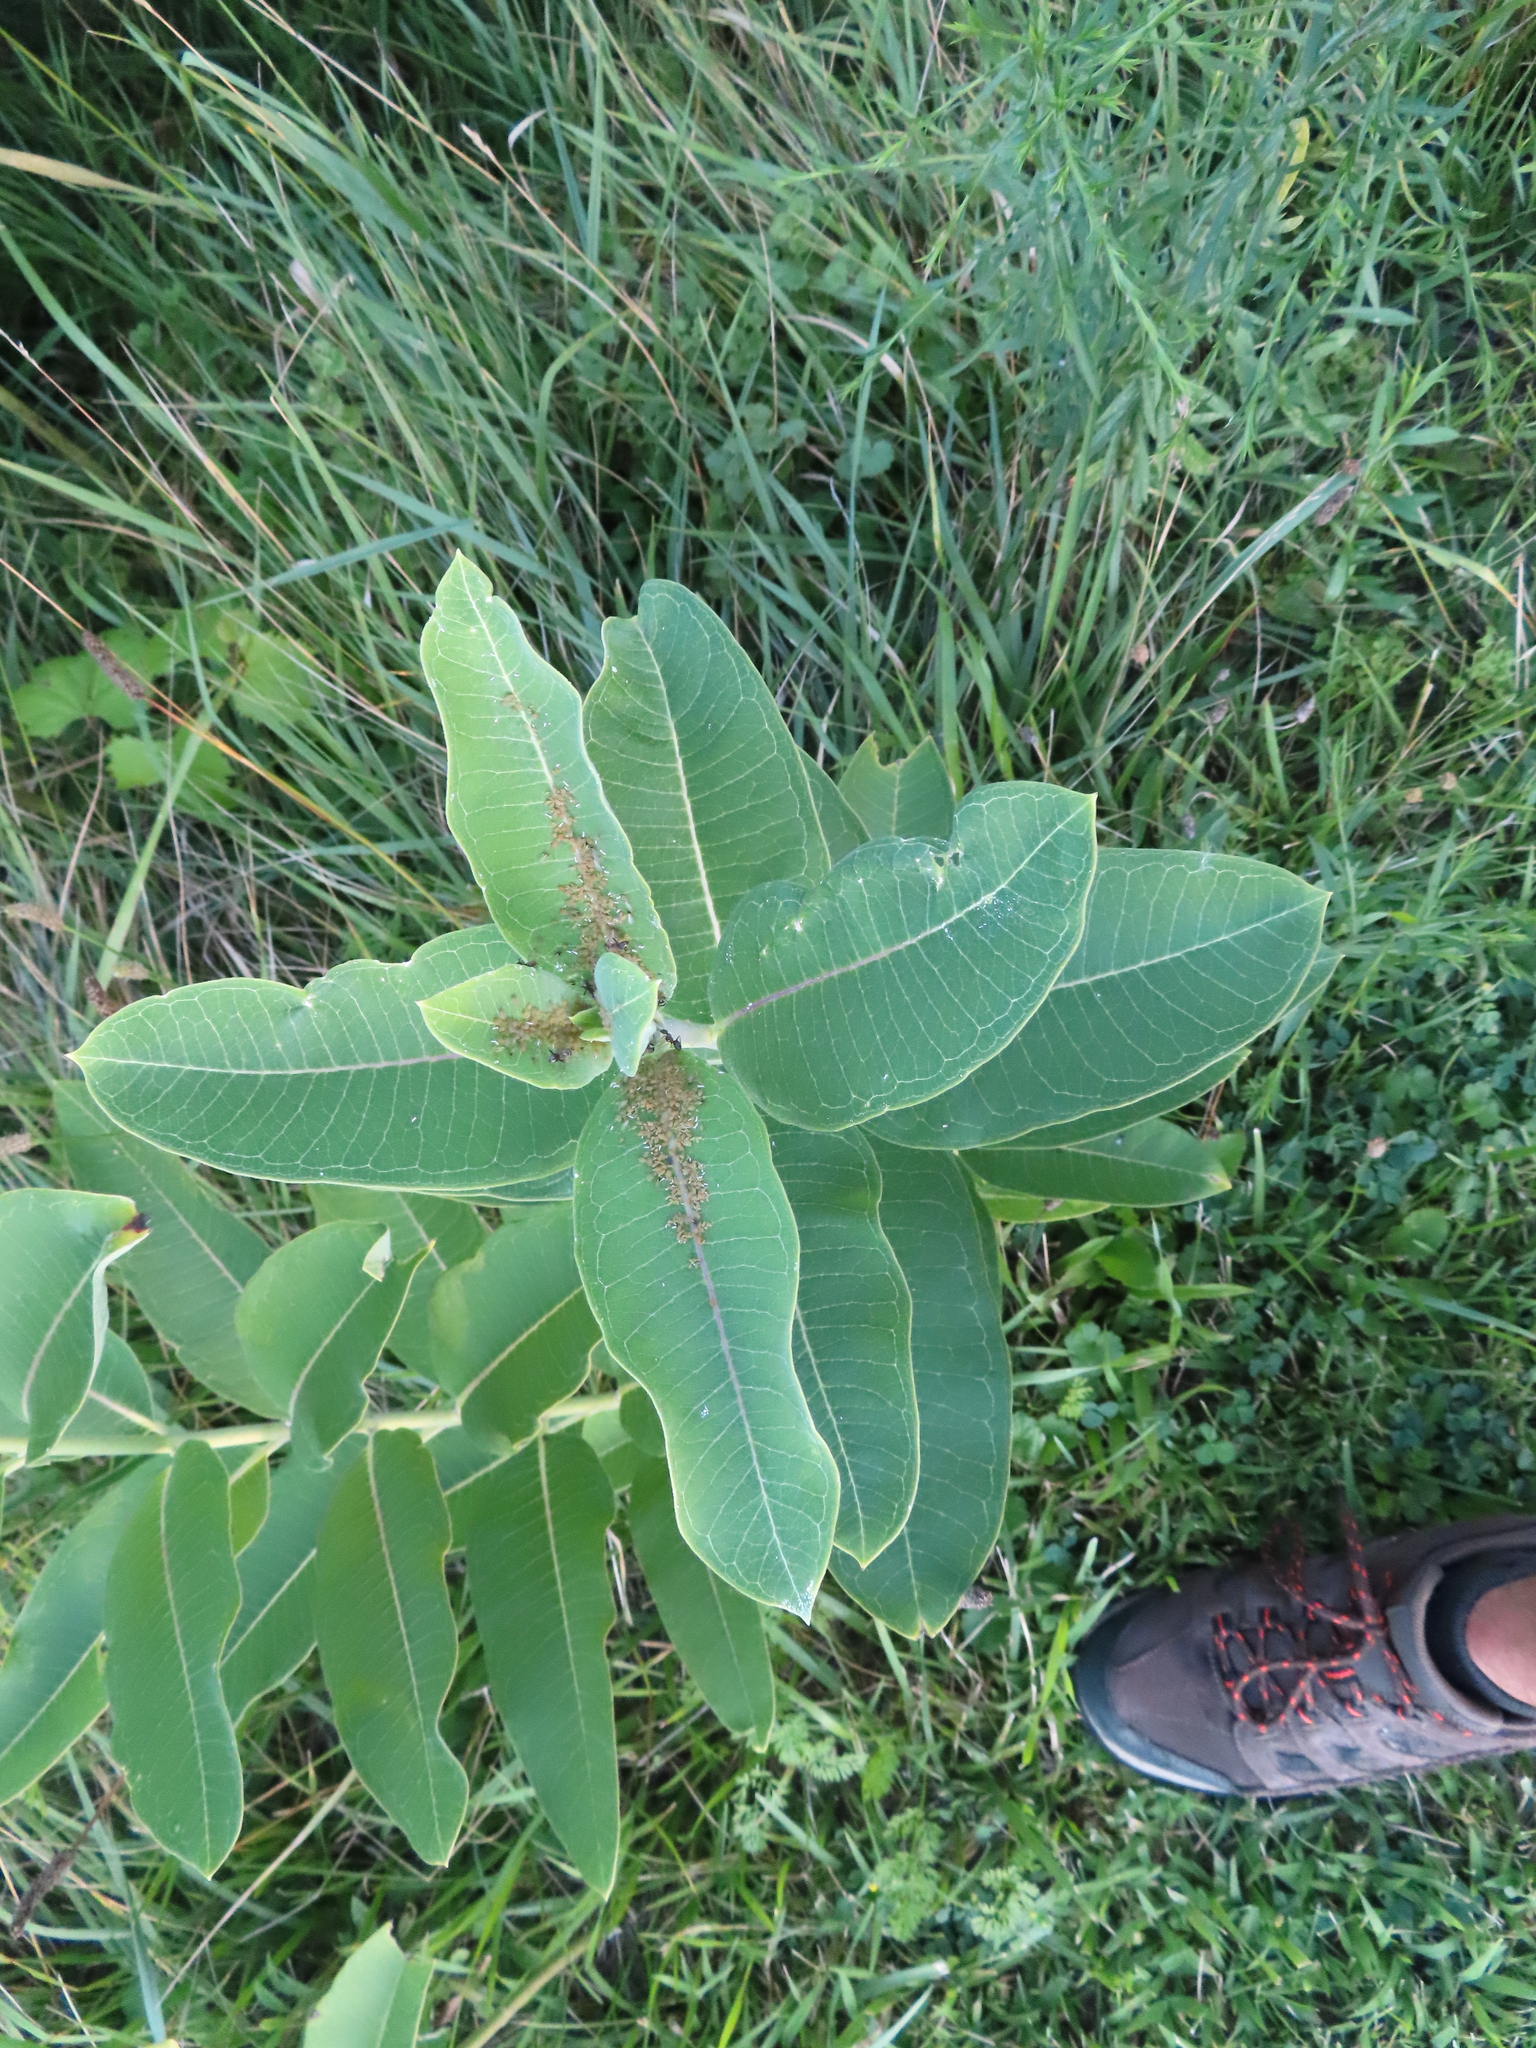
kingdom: Animalia
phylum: Arthropoda
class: Insecta
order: Hemiptera
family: Aphididae
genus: Aphis
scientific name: Aphis asclepiadis
